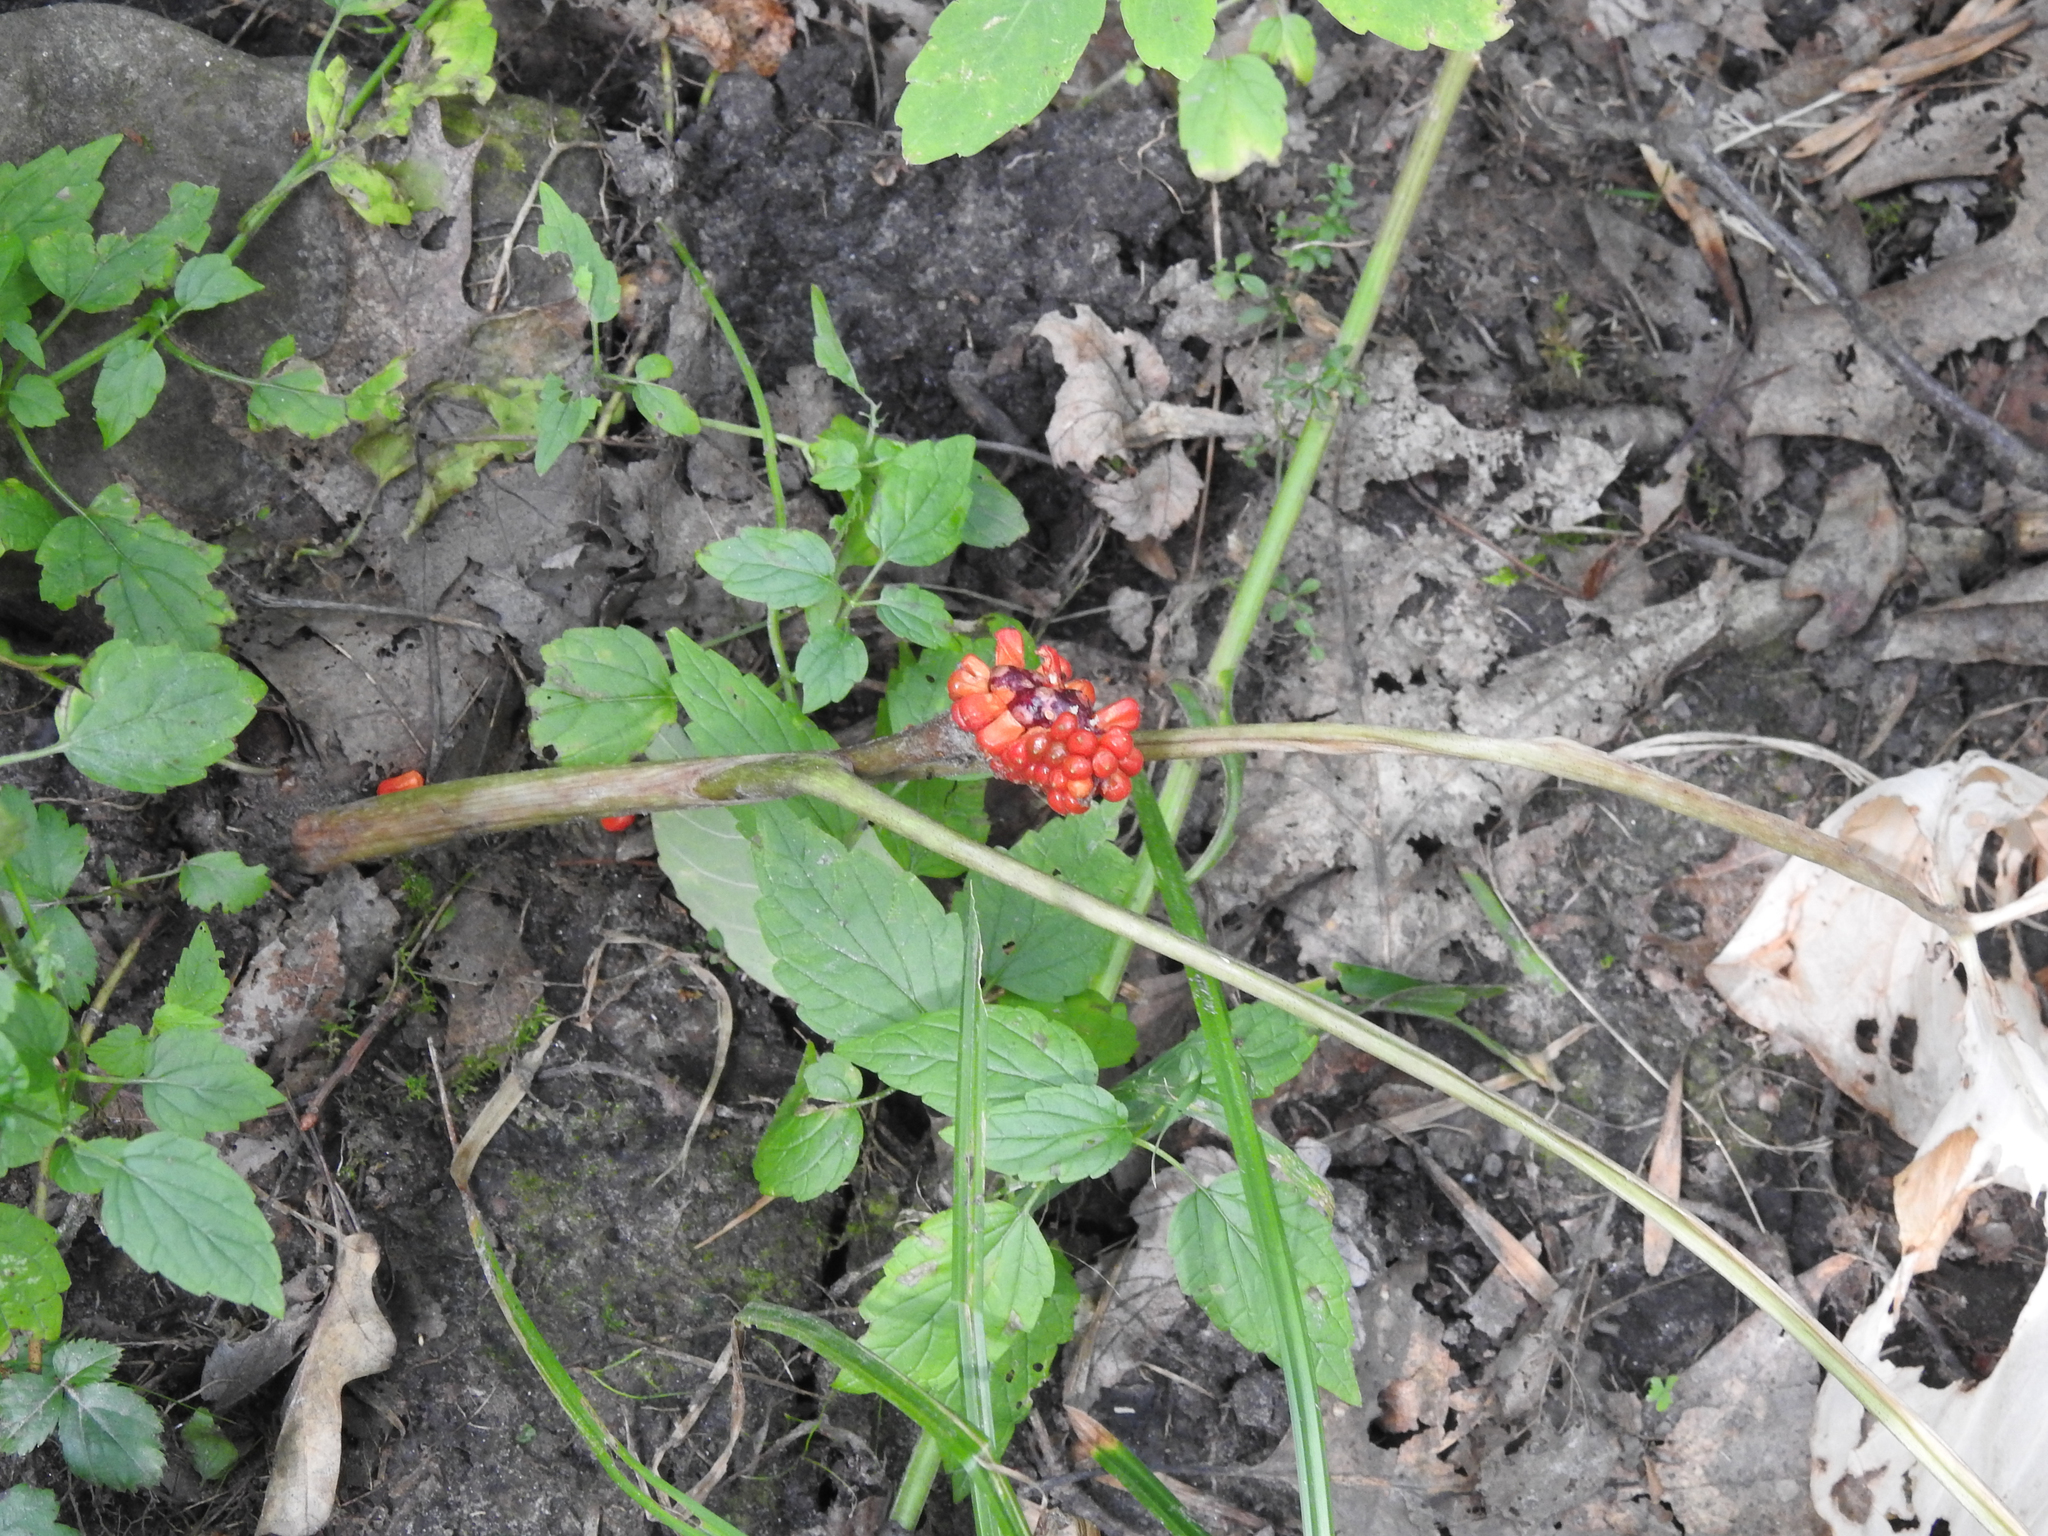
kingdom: Plantae
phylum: Tracheophyta
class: Liliopsida
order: Alismatales
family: Araceae
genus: Arisaema
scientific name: Arisaema triphyllum
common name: Jack-in-the-pulpit
